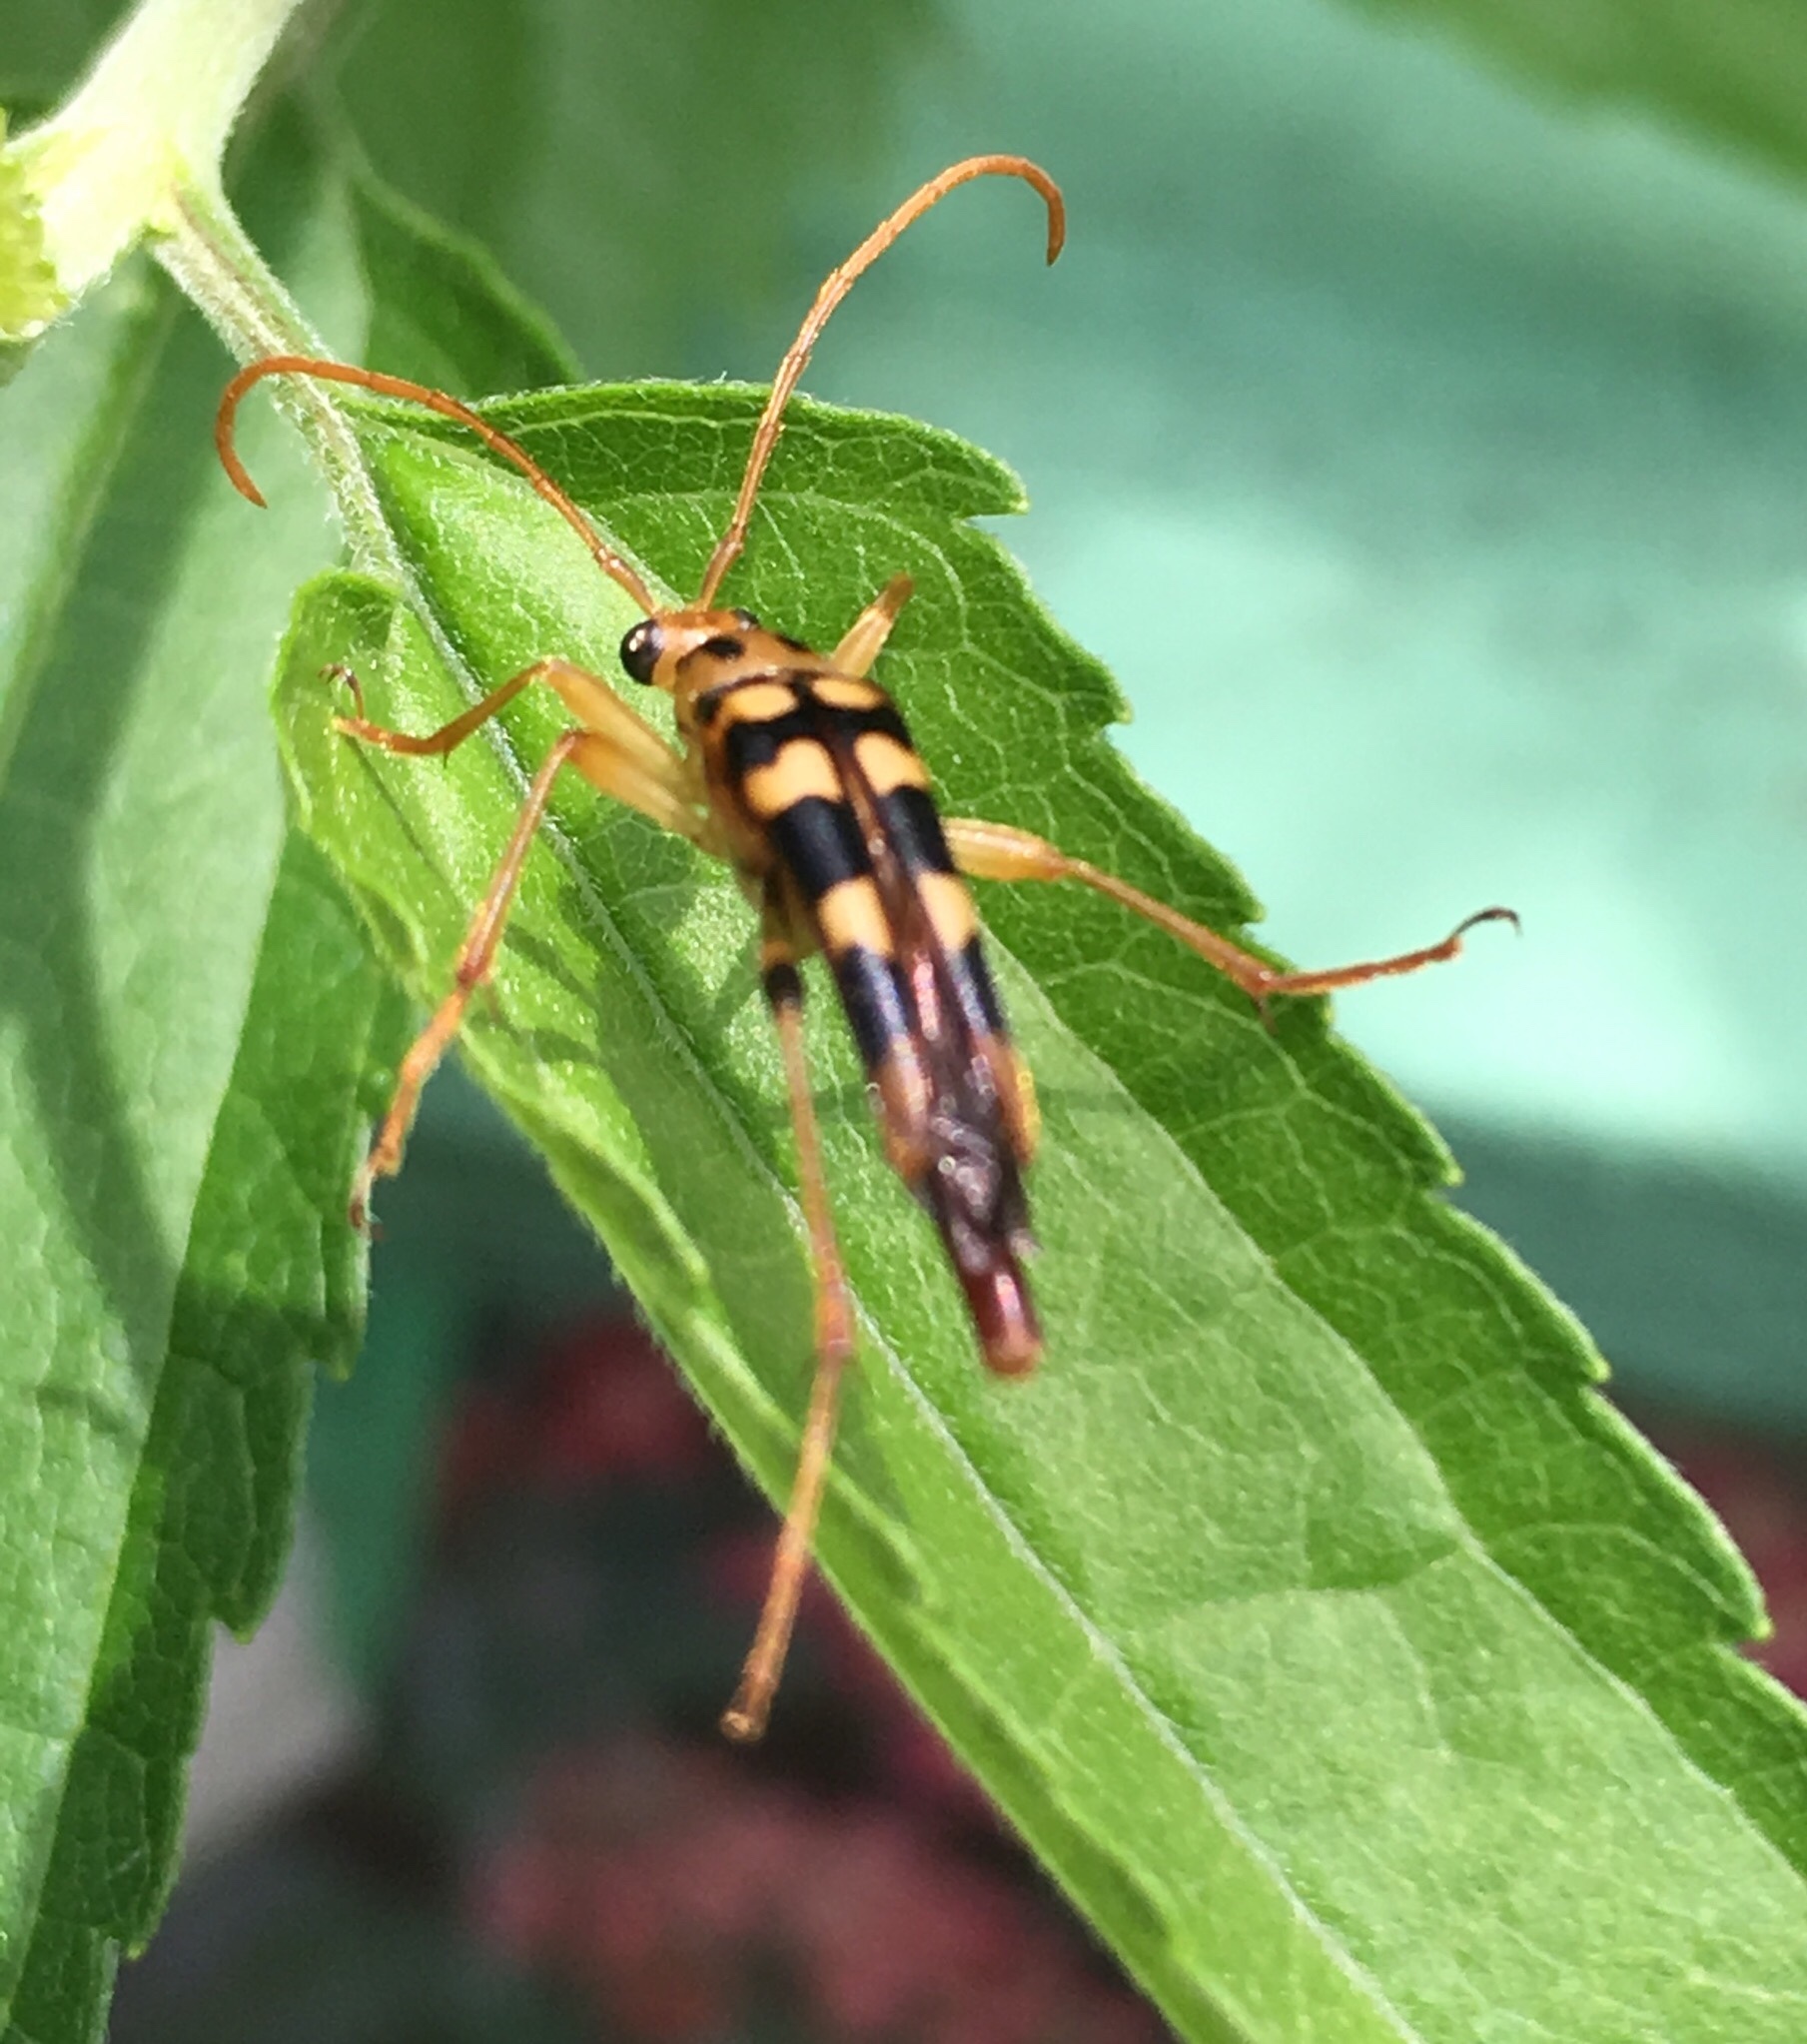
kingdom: Animalia
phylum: Arthropoda
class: Insecta
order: Coleoptera
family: Cerambycidae
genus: Strangalia
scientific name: Strangalia luteicornis
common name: Yellow-horned flower longhorn beetle
